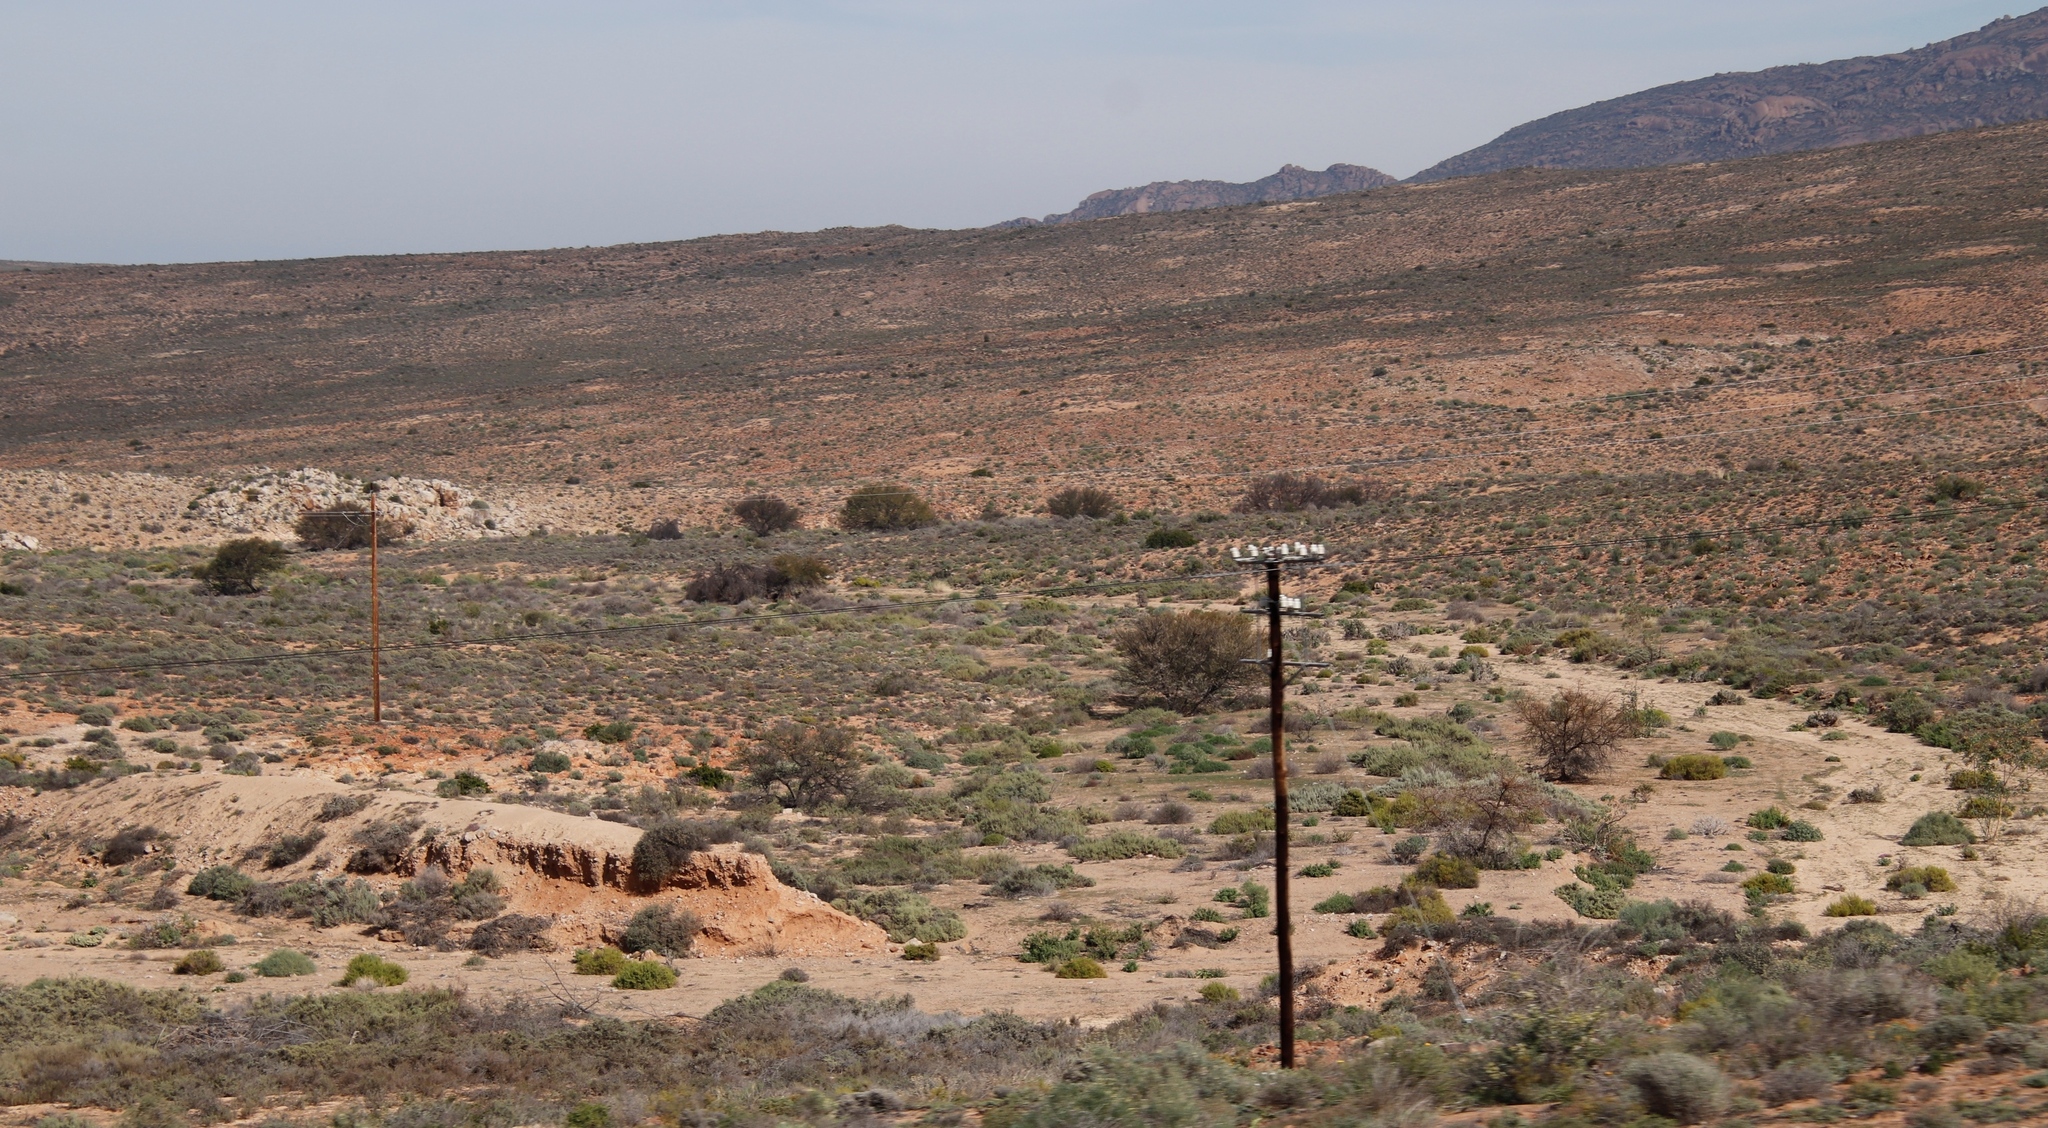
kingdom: Plantae
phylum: Tracheophyta
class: Magnoliopsida
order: Fabales
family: Fabaceae
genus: Vachellia
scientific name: Vachellia karroo
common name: Sweet thorn
